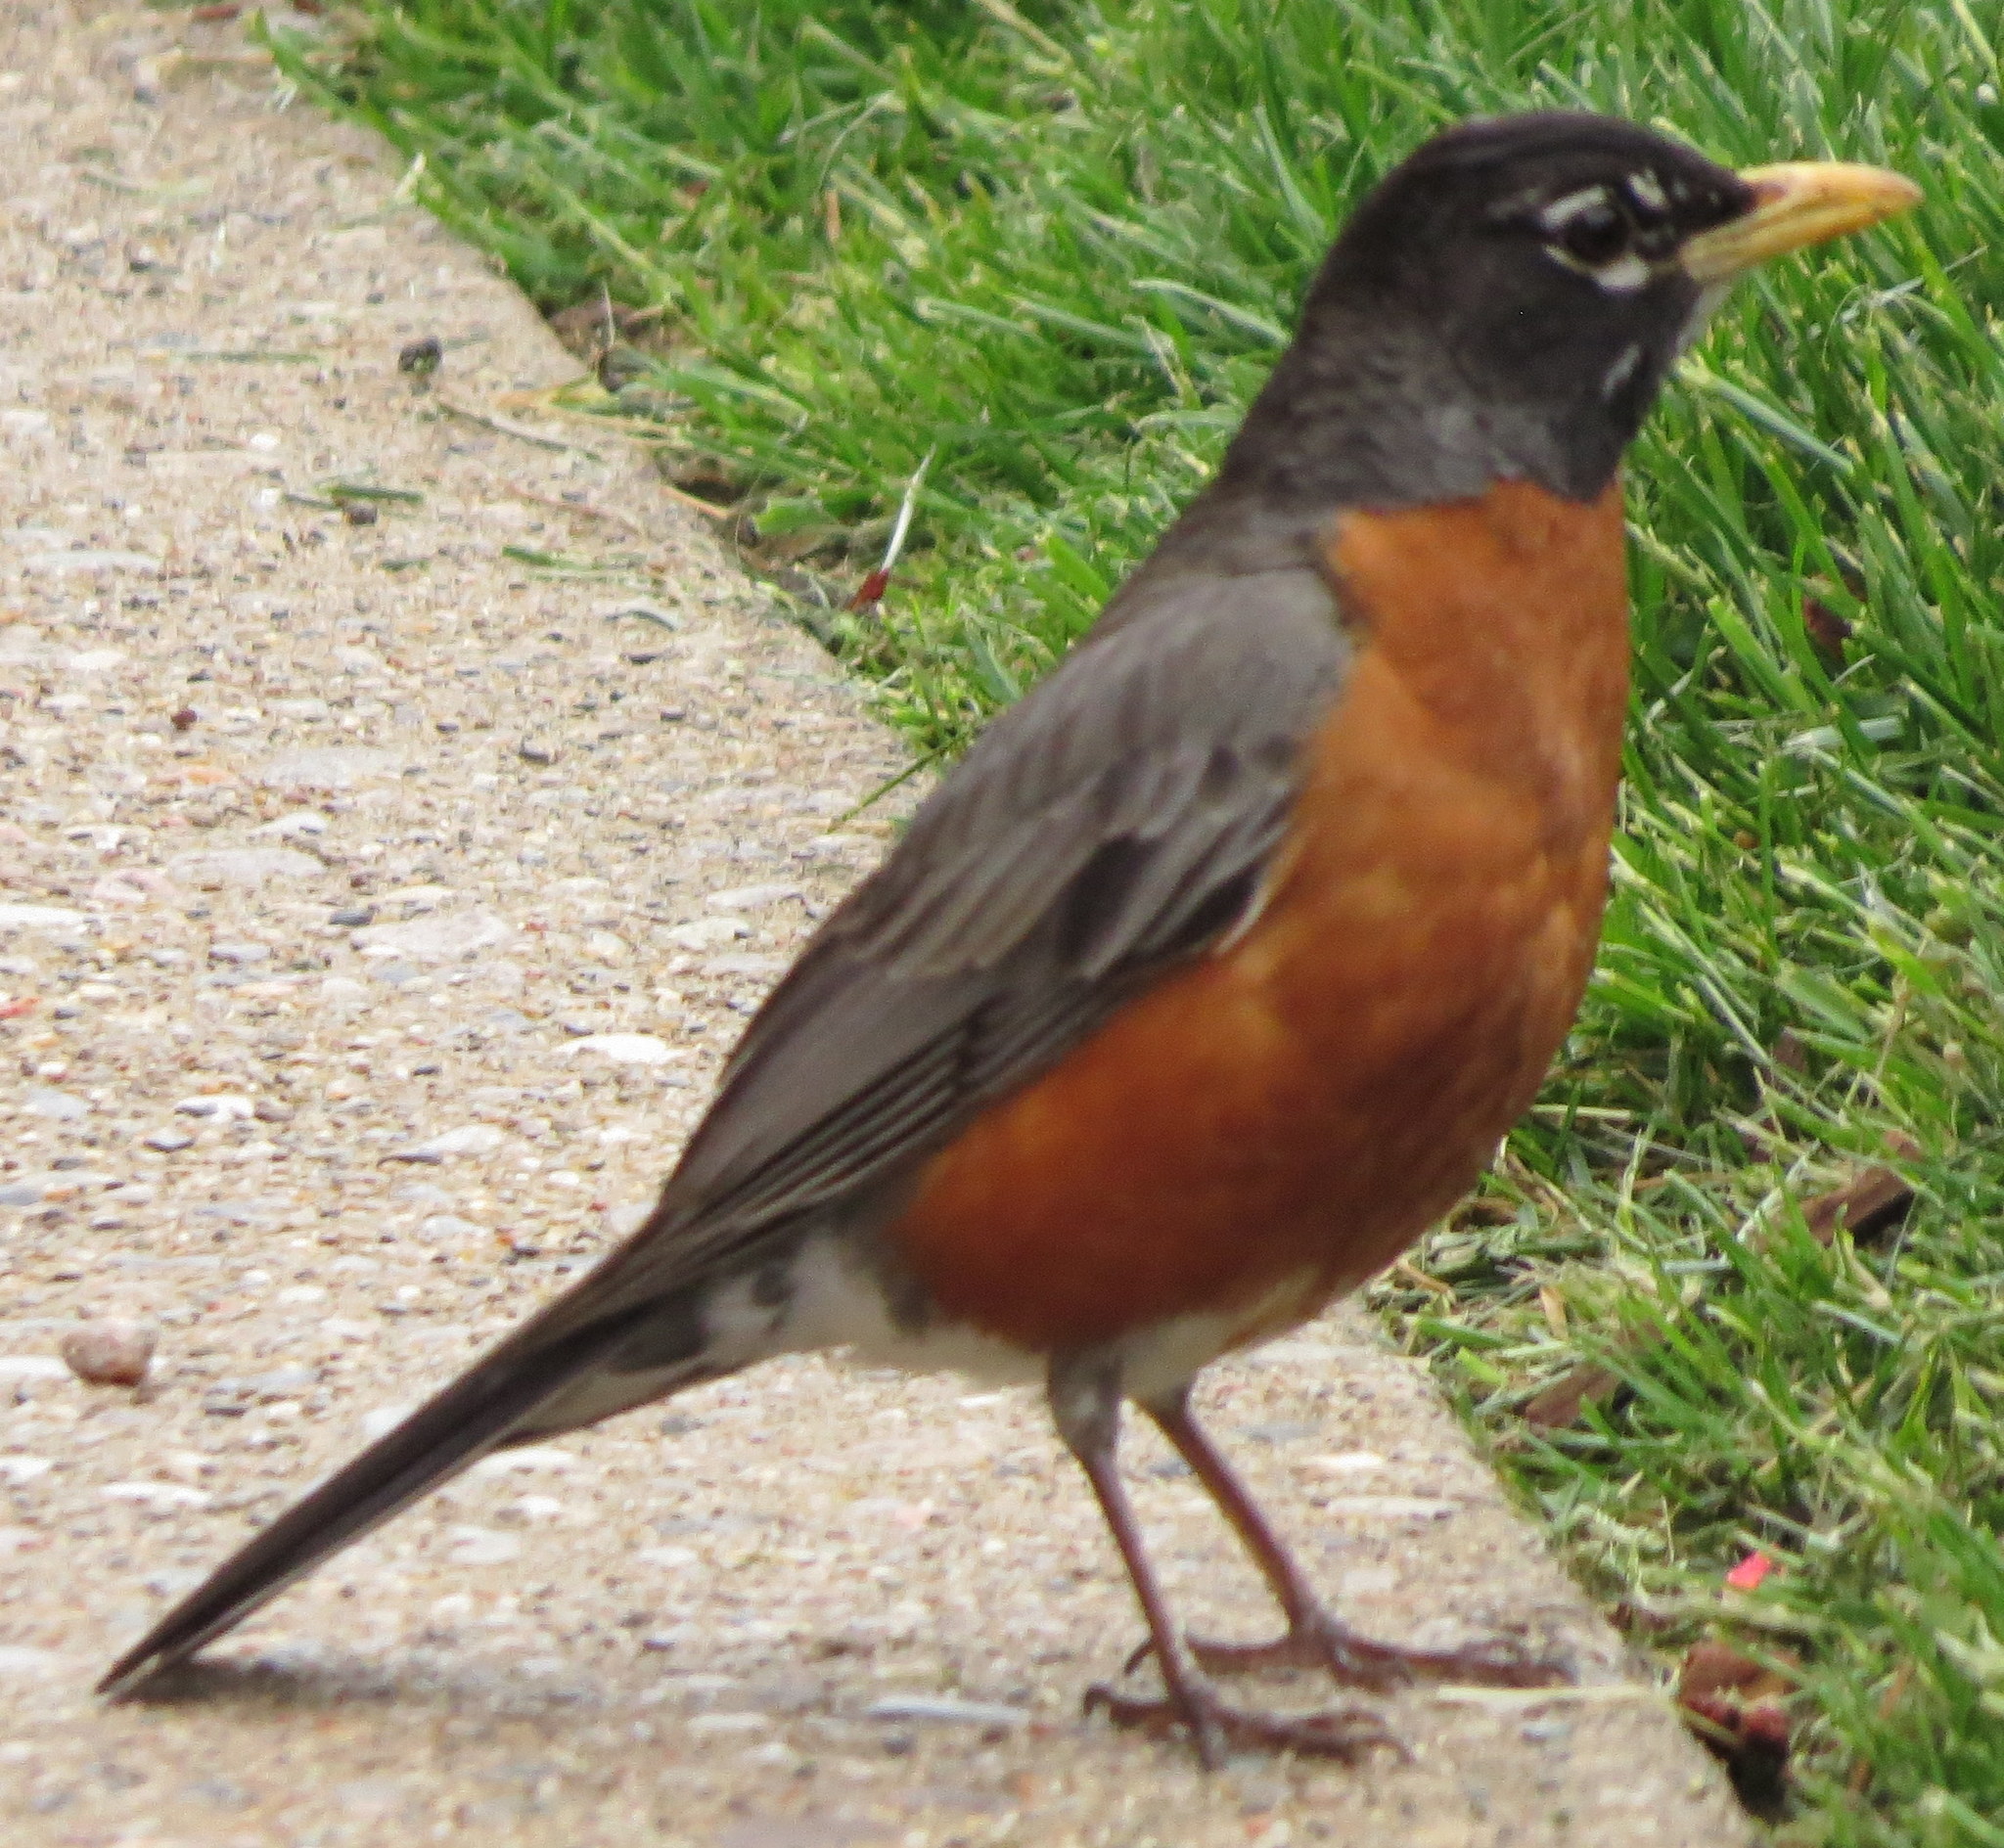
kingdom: Animalia
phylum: Chordata
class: Aves
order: Passeriformes
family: Turdidae
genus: Turdus
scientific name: Turdus migratorius
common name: American robin
